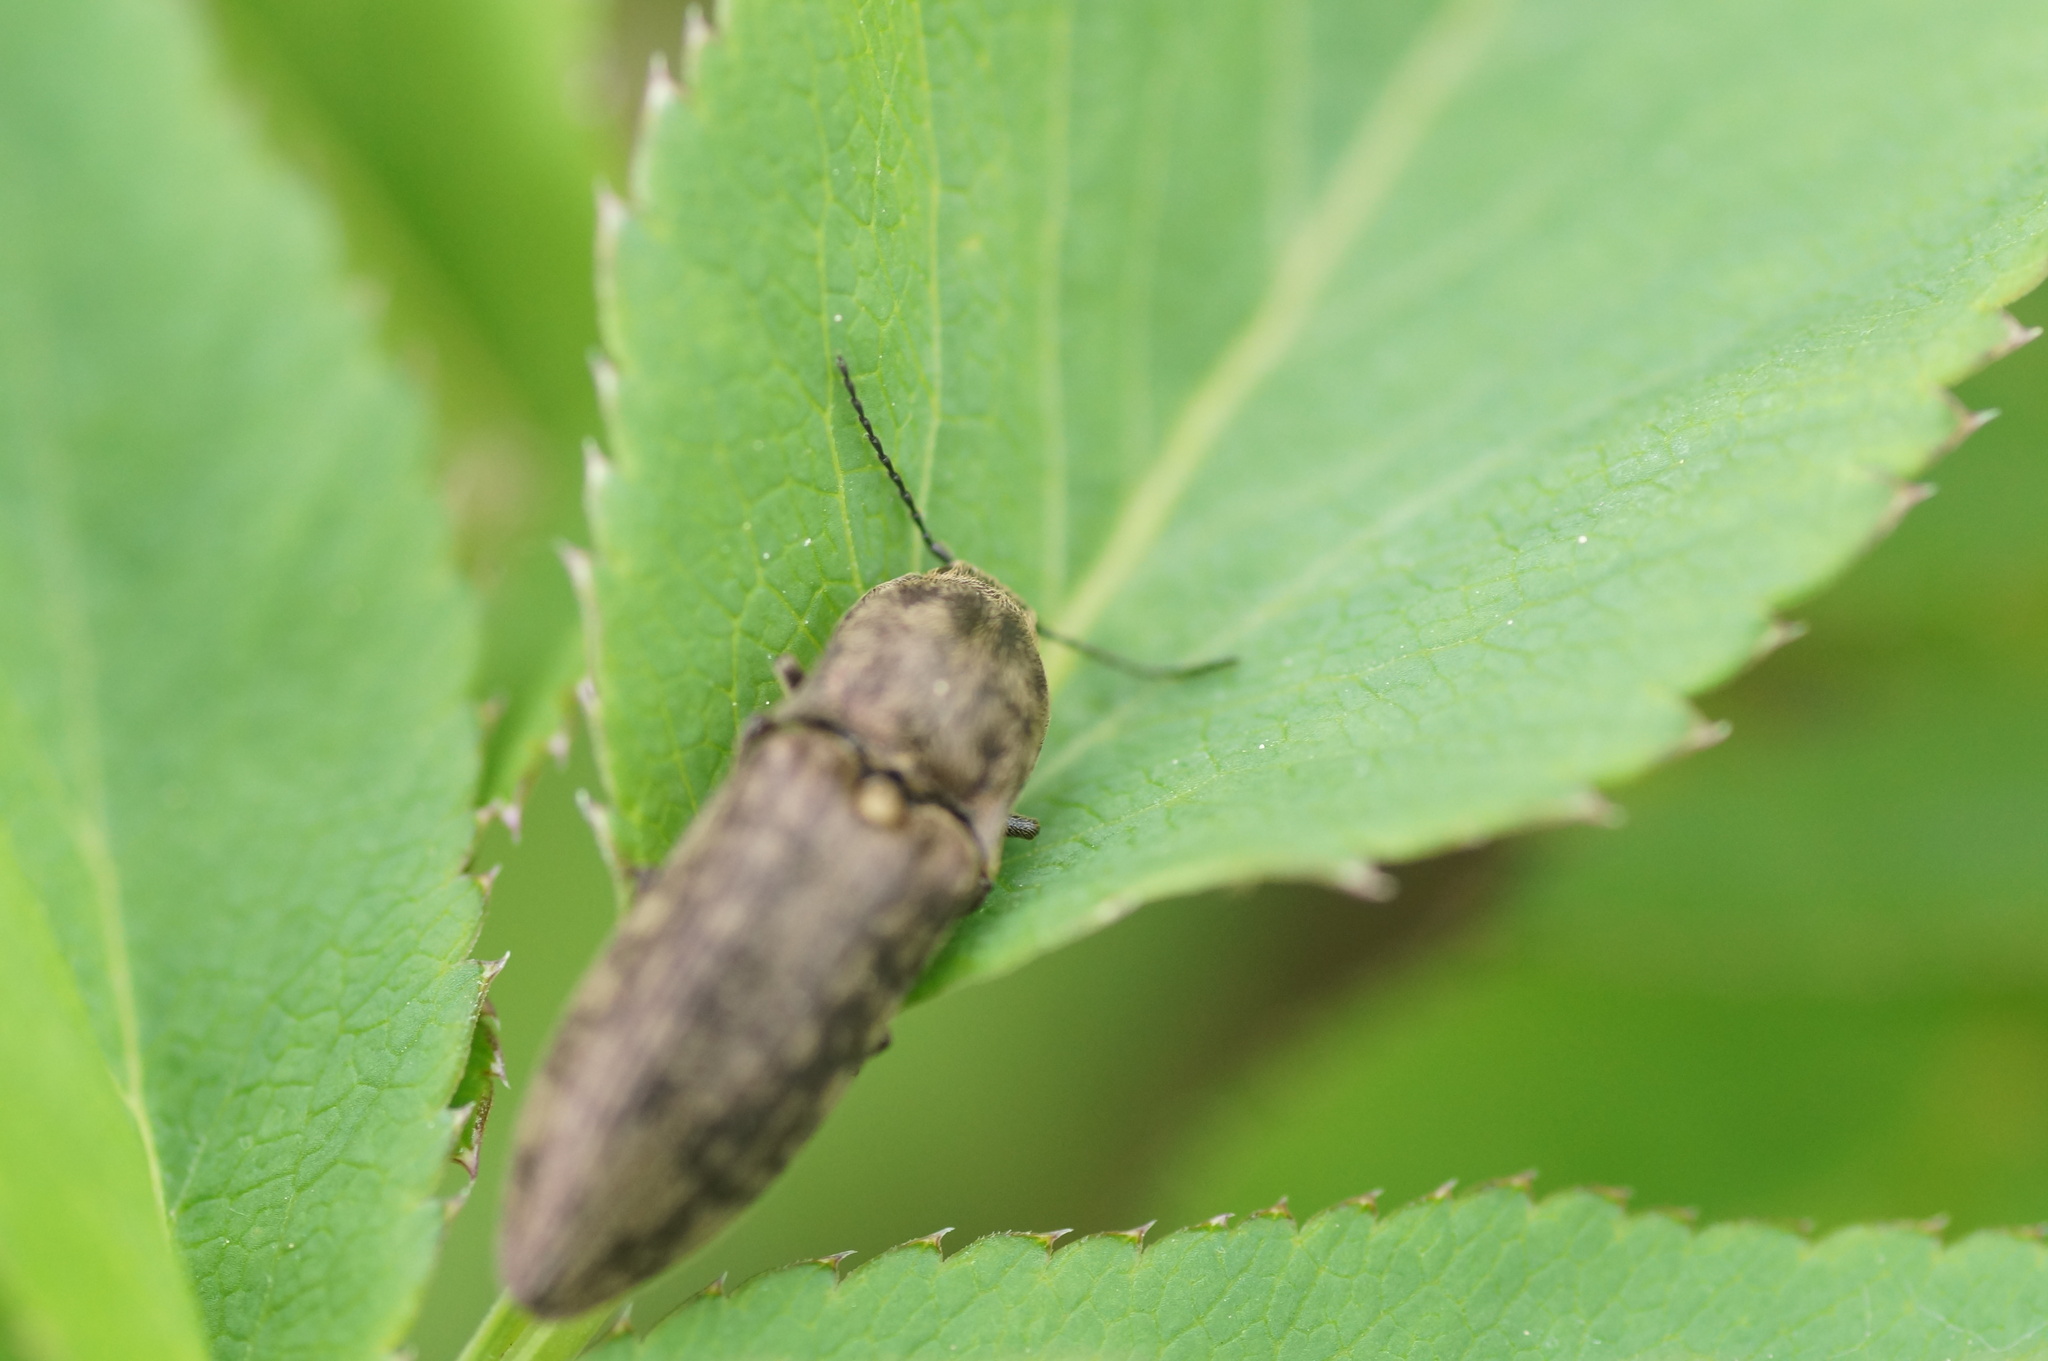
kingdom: Animalia
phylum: Arthropoda
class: Insecta
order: Coleoptera
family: Elateridae
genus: Actenicerus
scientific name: Actenicerus sjaelandicus
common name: Marsh click beetle
